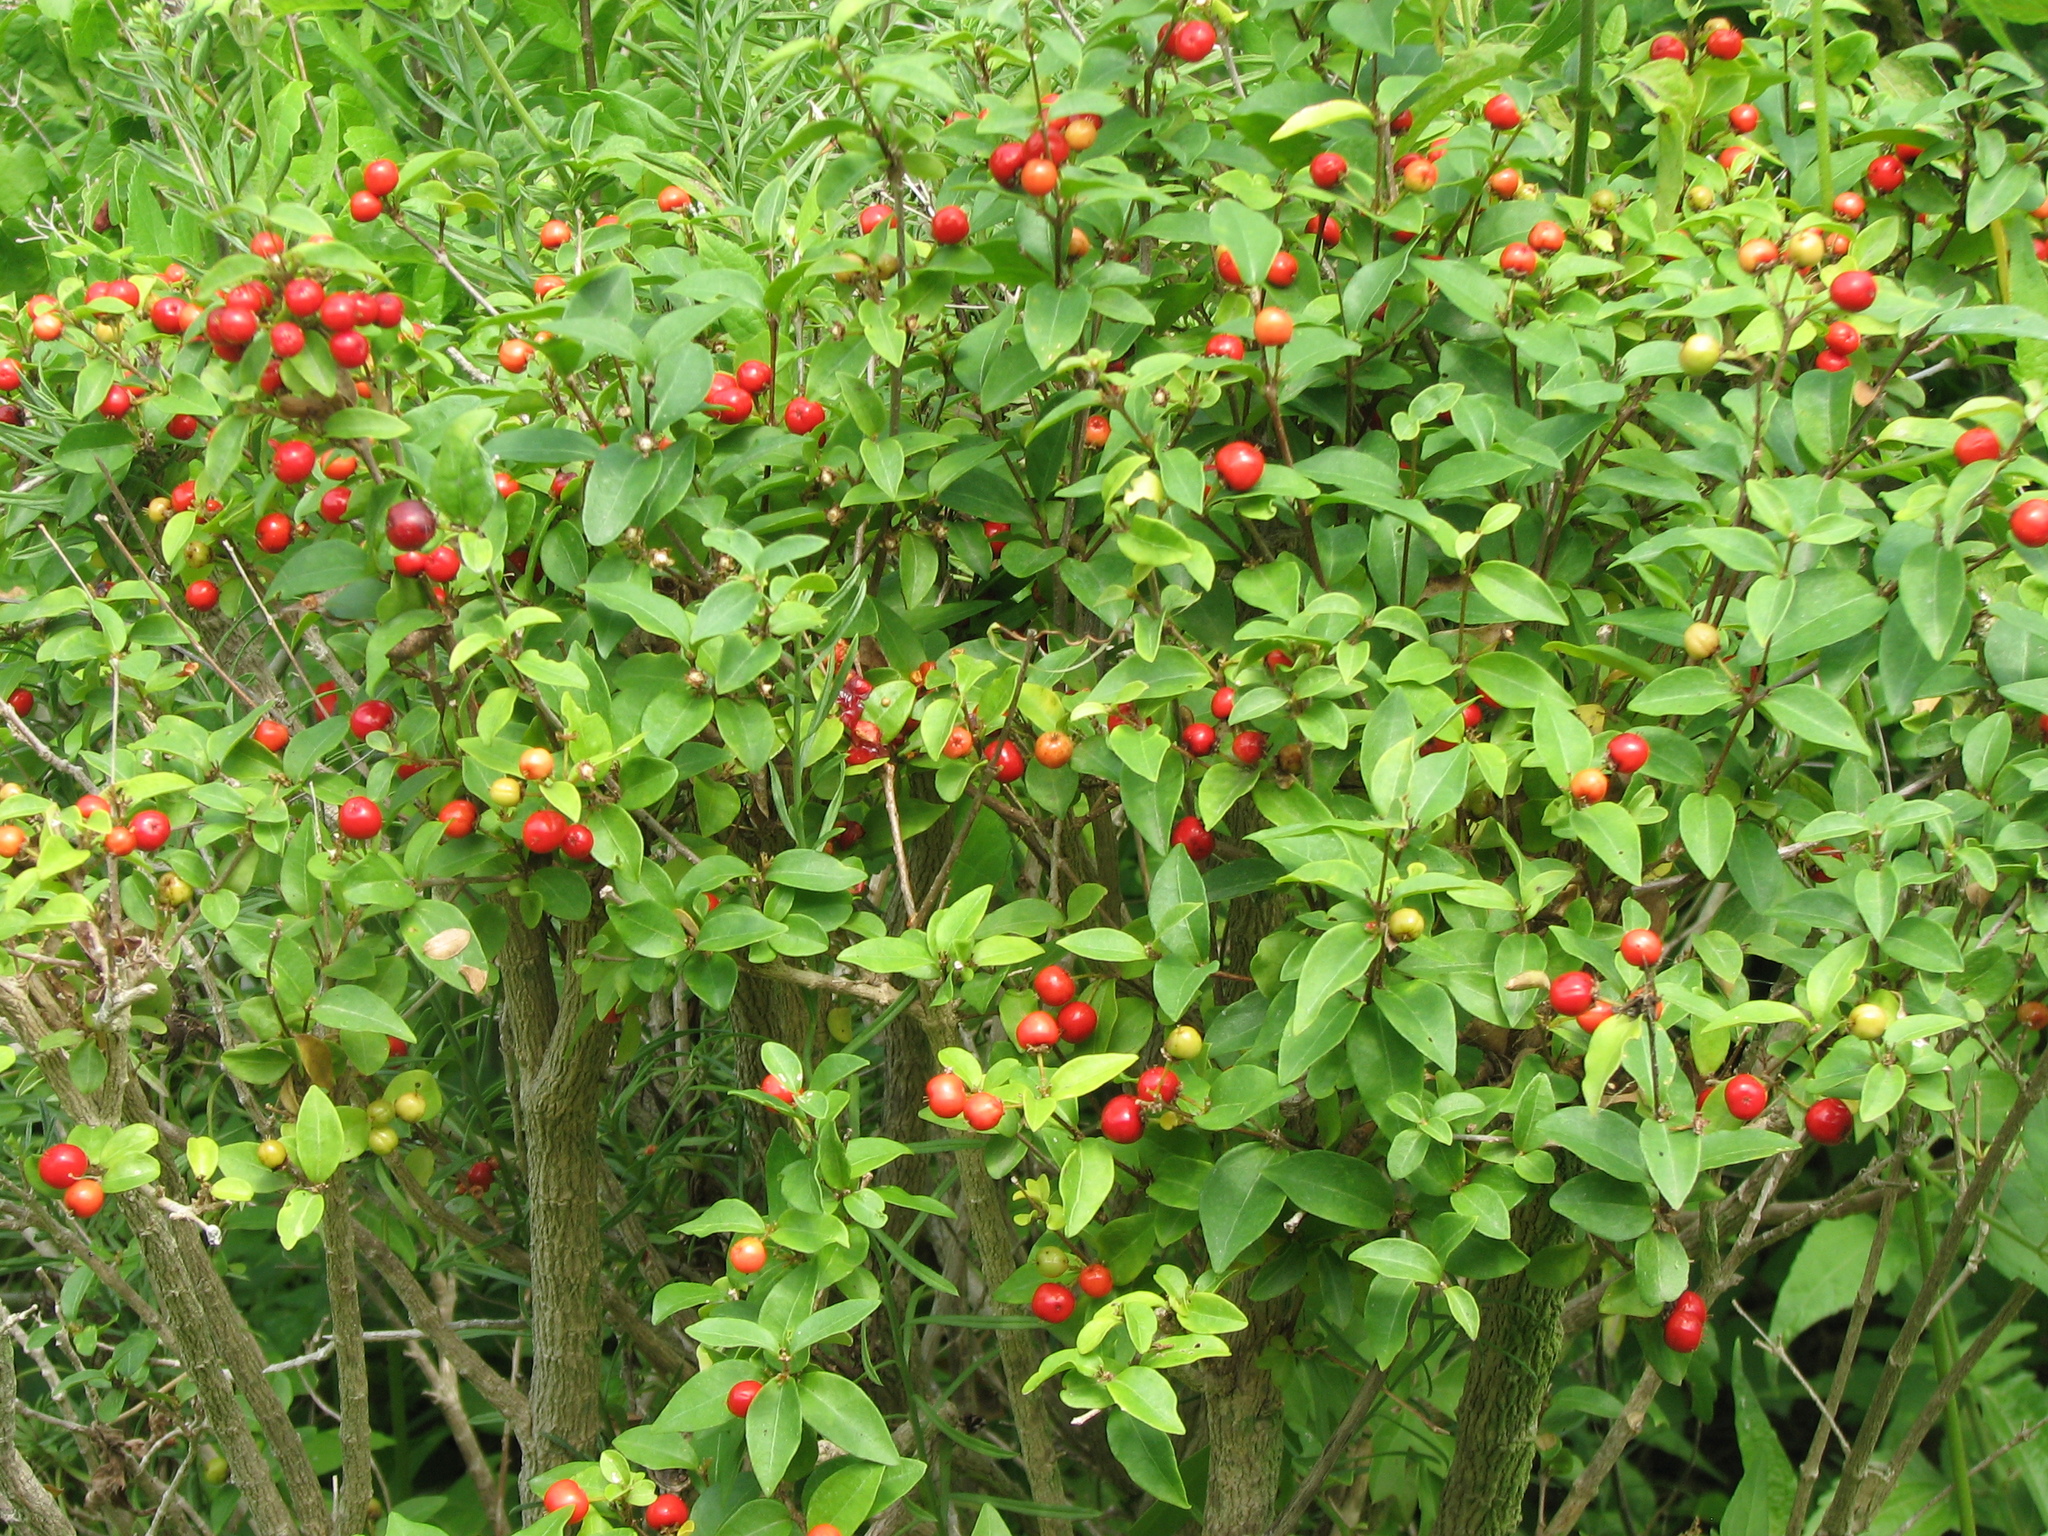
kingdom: Plantae
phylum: Tracheophyta
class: Magnoliopsida
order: Malpighiales
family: Malpighiaceae
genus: Malpighia
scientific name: Malpighia glabra
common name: Barbados cherry
